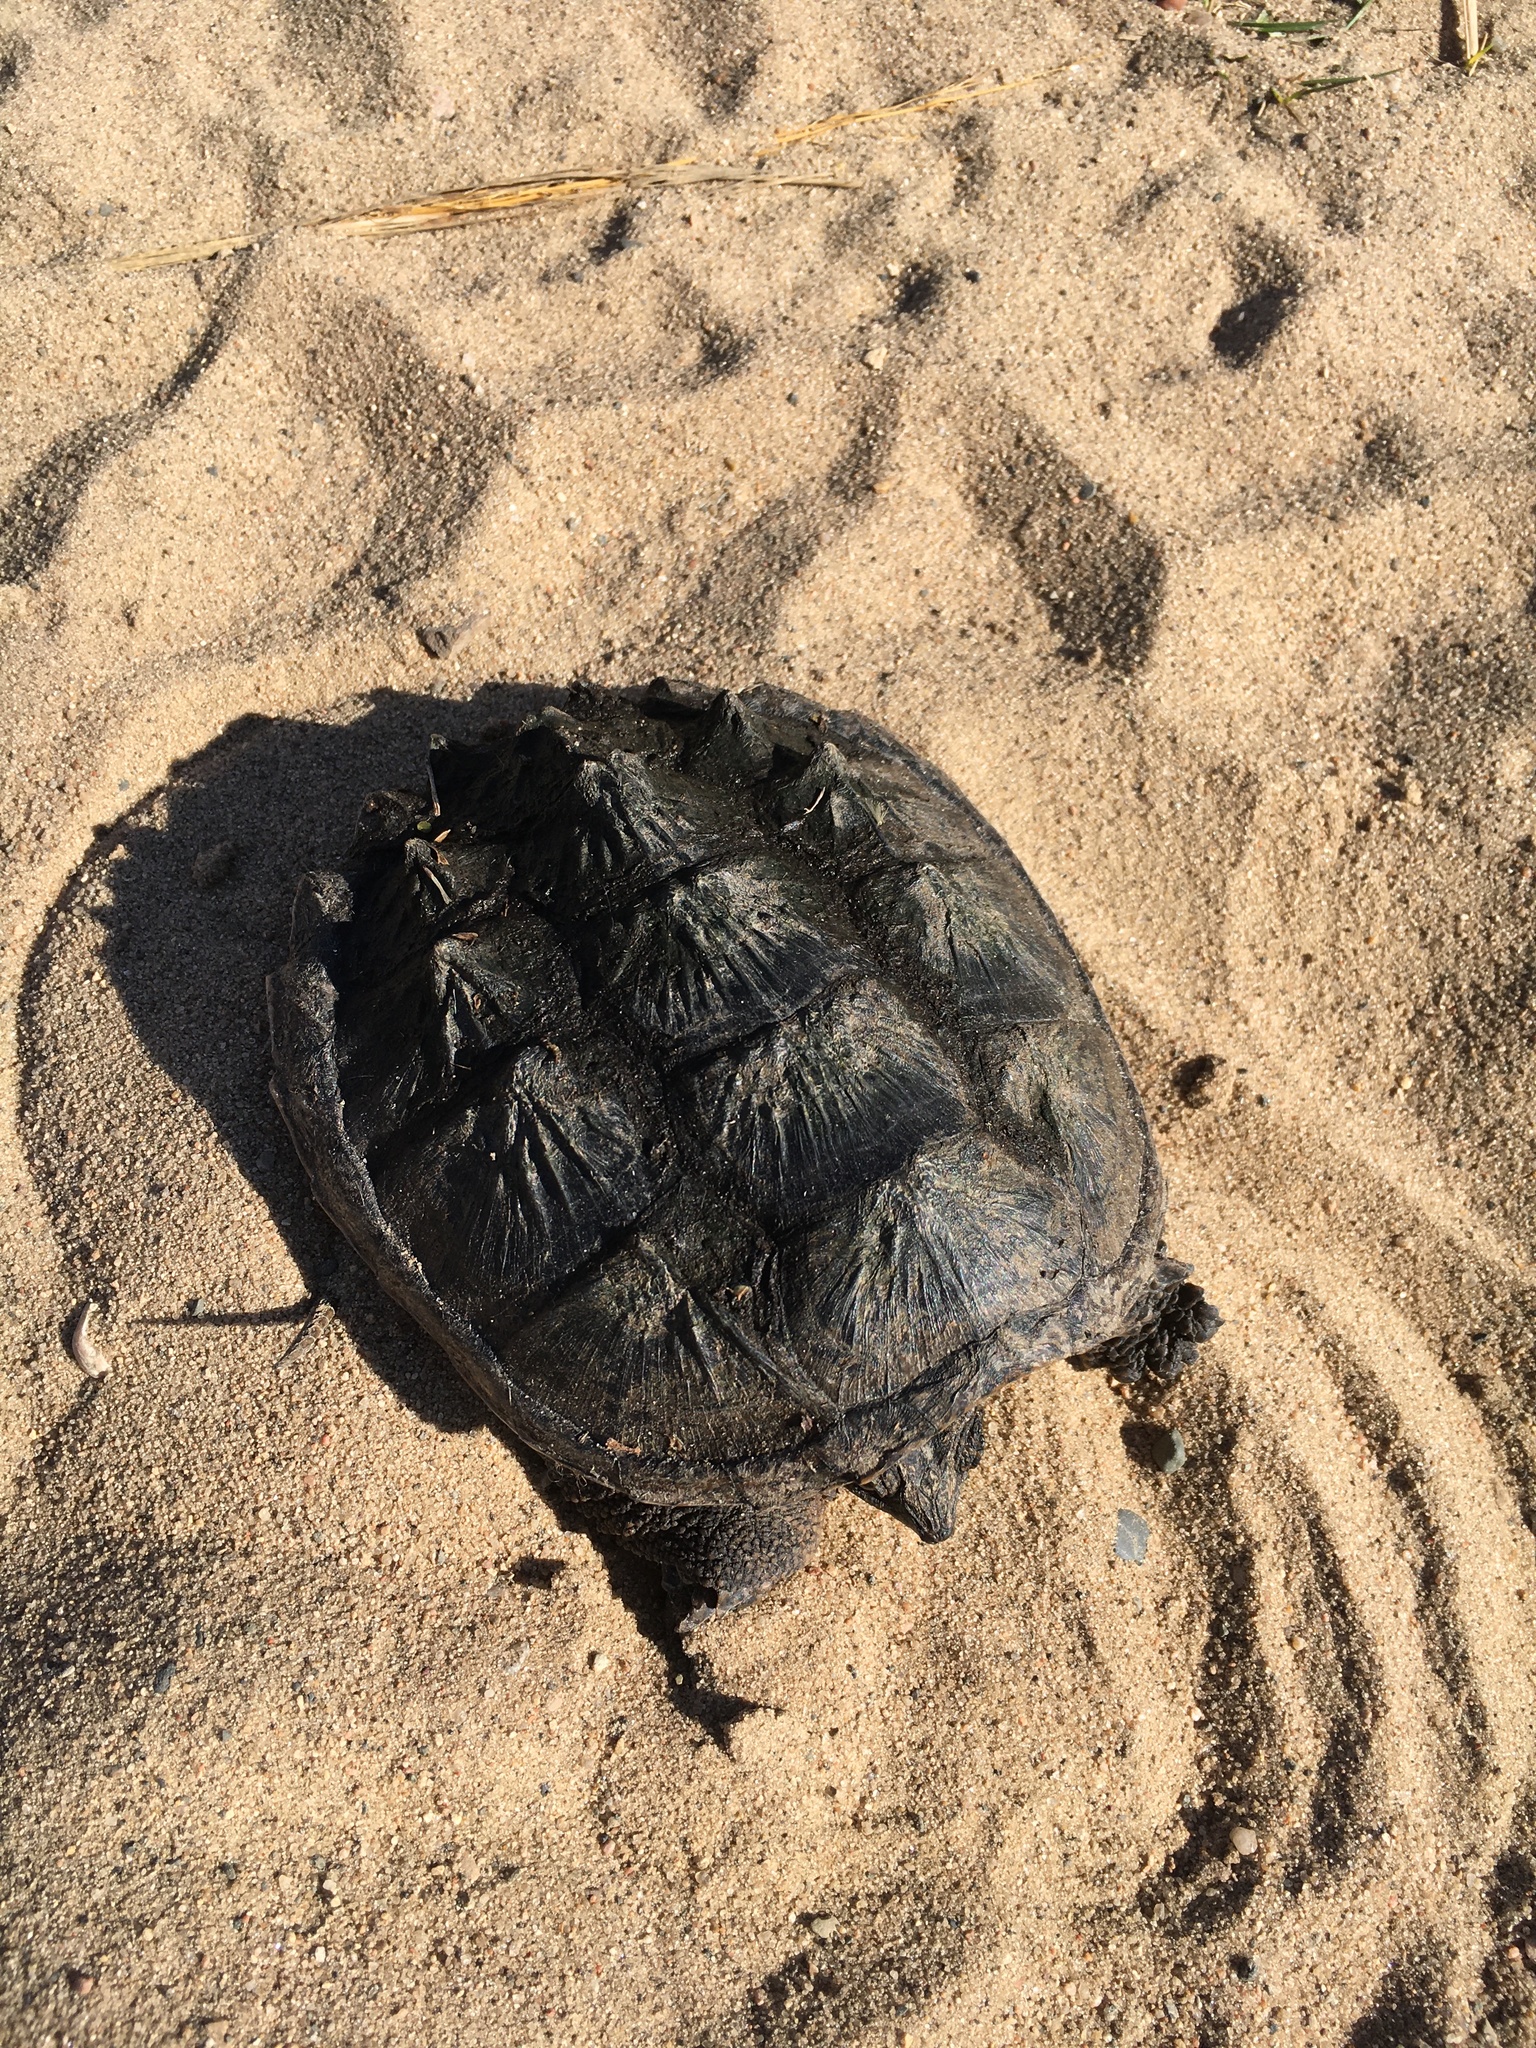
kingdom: Animalia
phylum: Chordata
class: Testudines
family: Chelydridae
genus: Chelydra
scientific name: Chelydra serpentina
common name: Common snapping turtle
